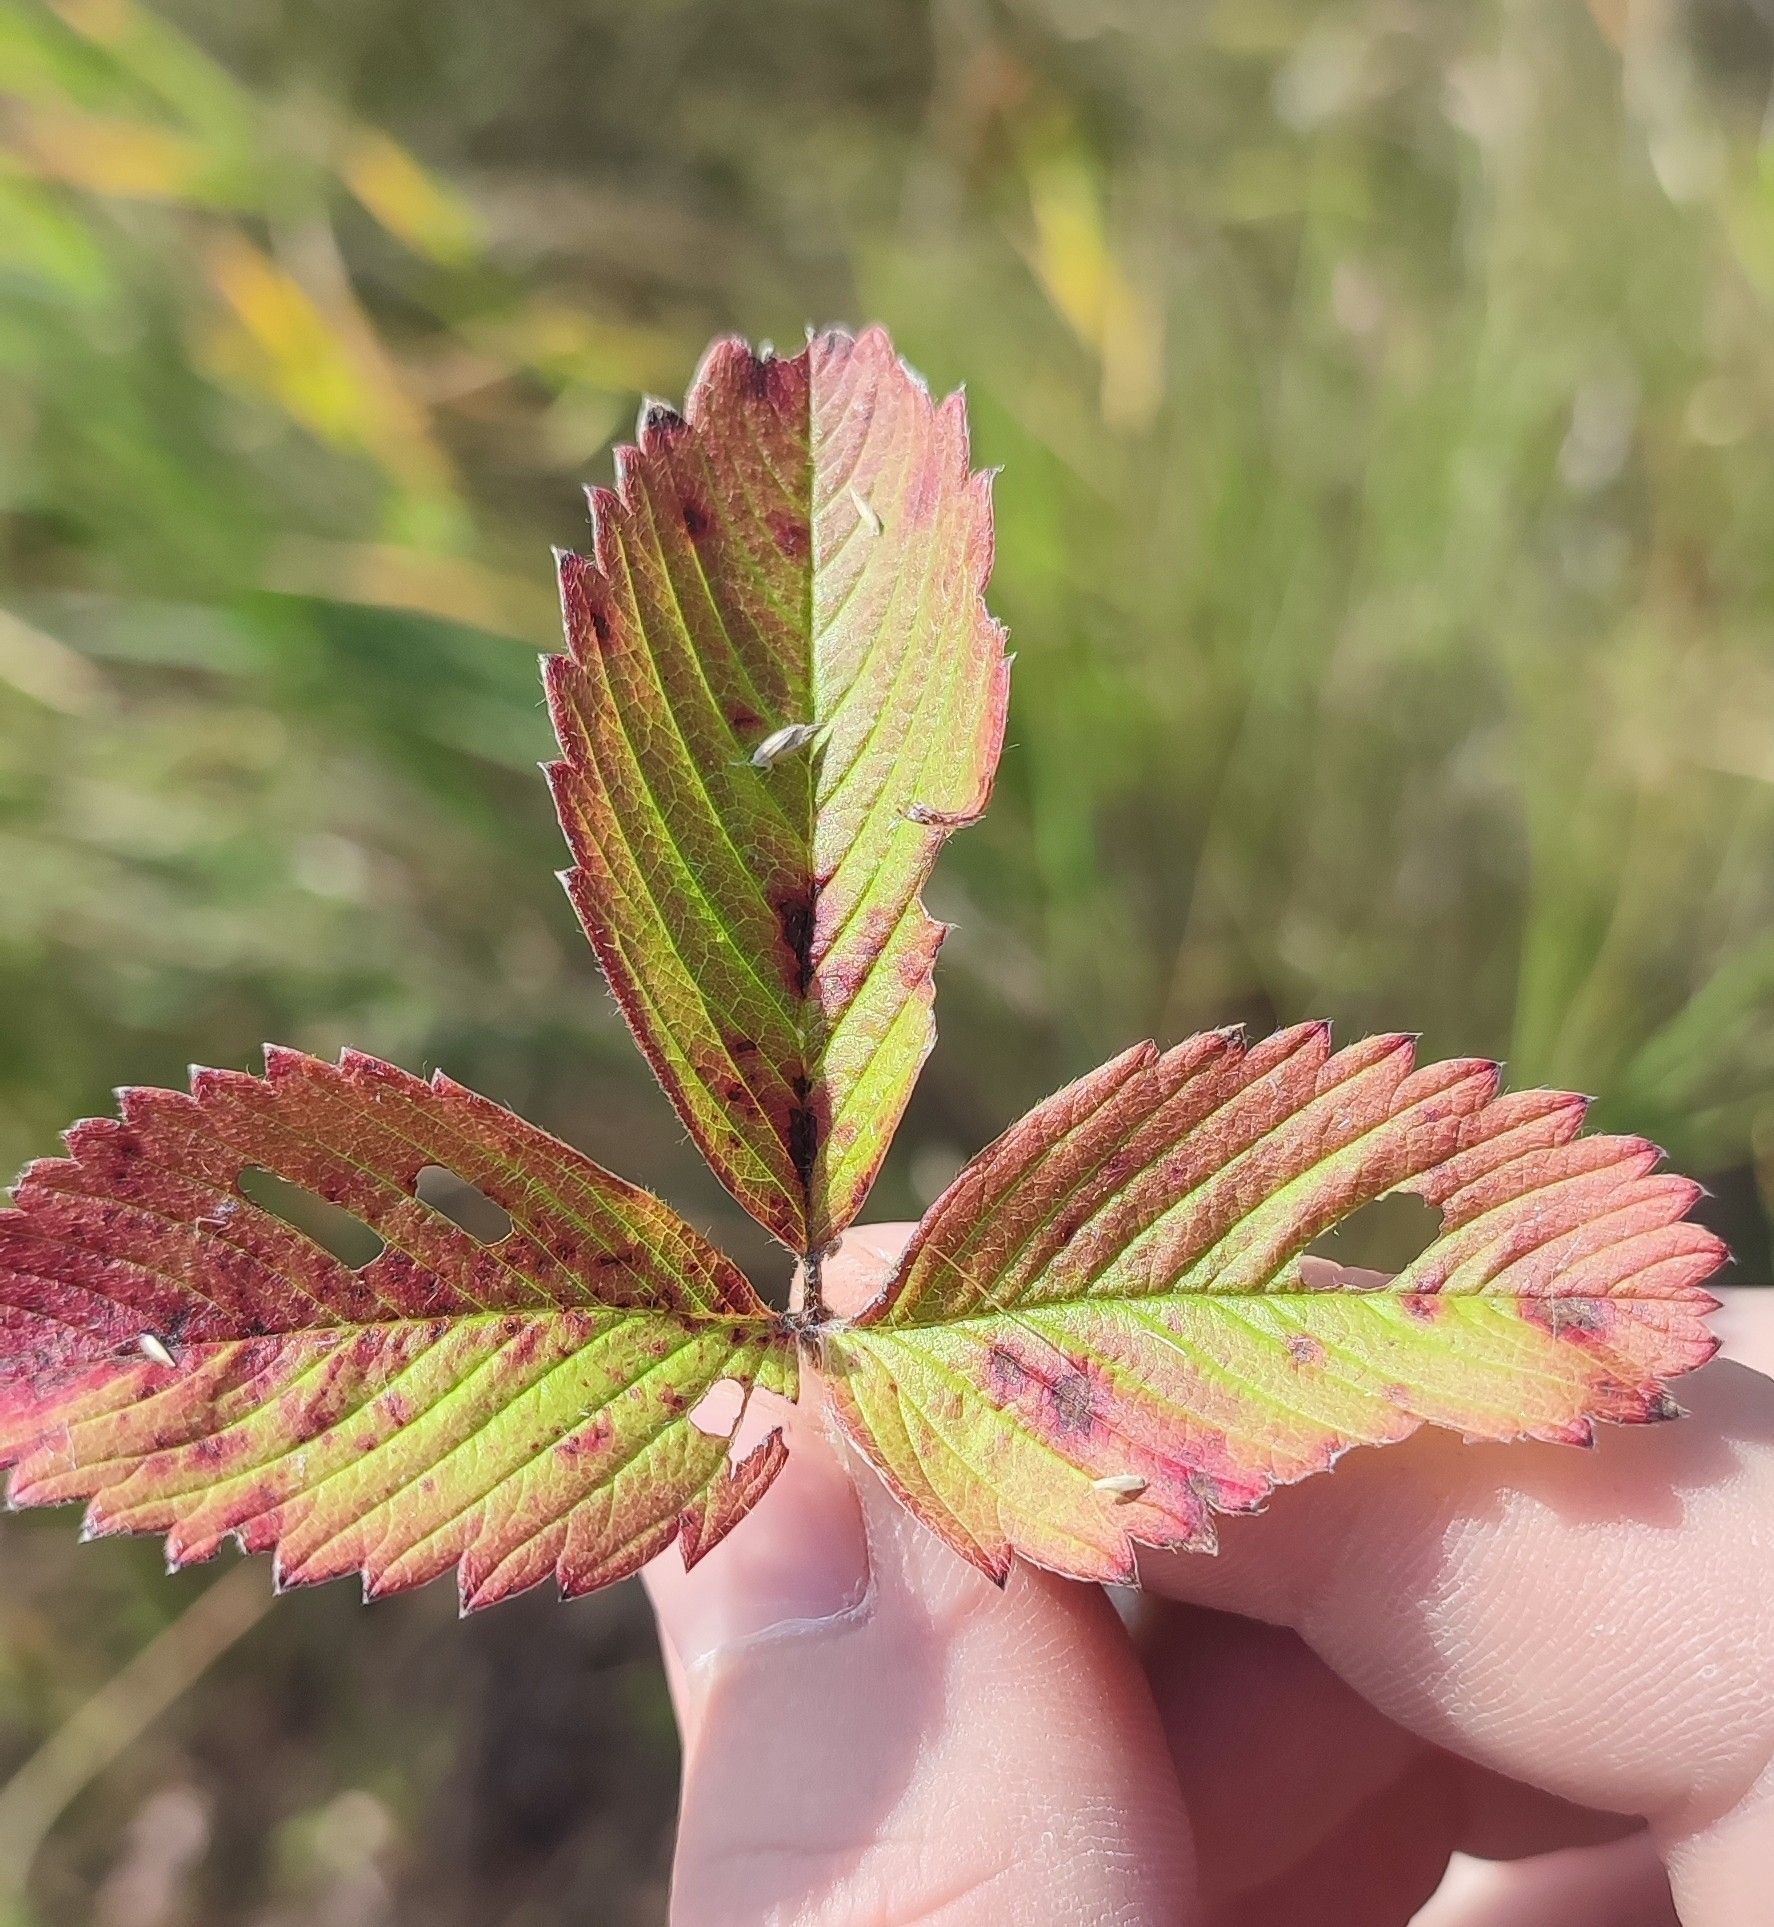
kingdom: Plantae
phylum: Tracheophyta
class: Magnoliopsida
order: Rosales
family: Rosaceae
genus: Fragaria
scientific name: Fragaria viridis
